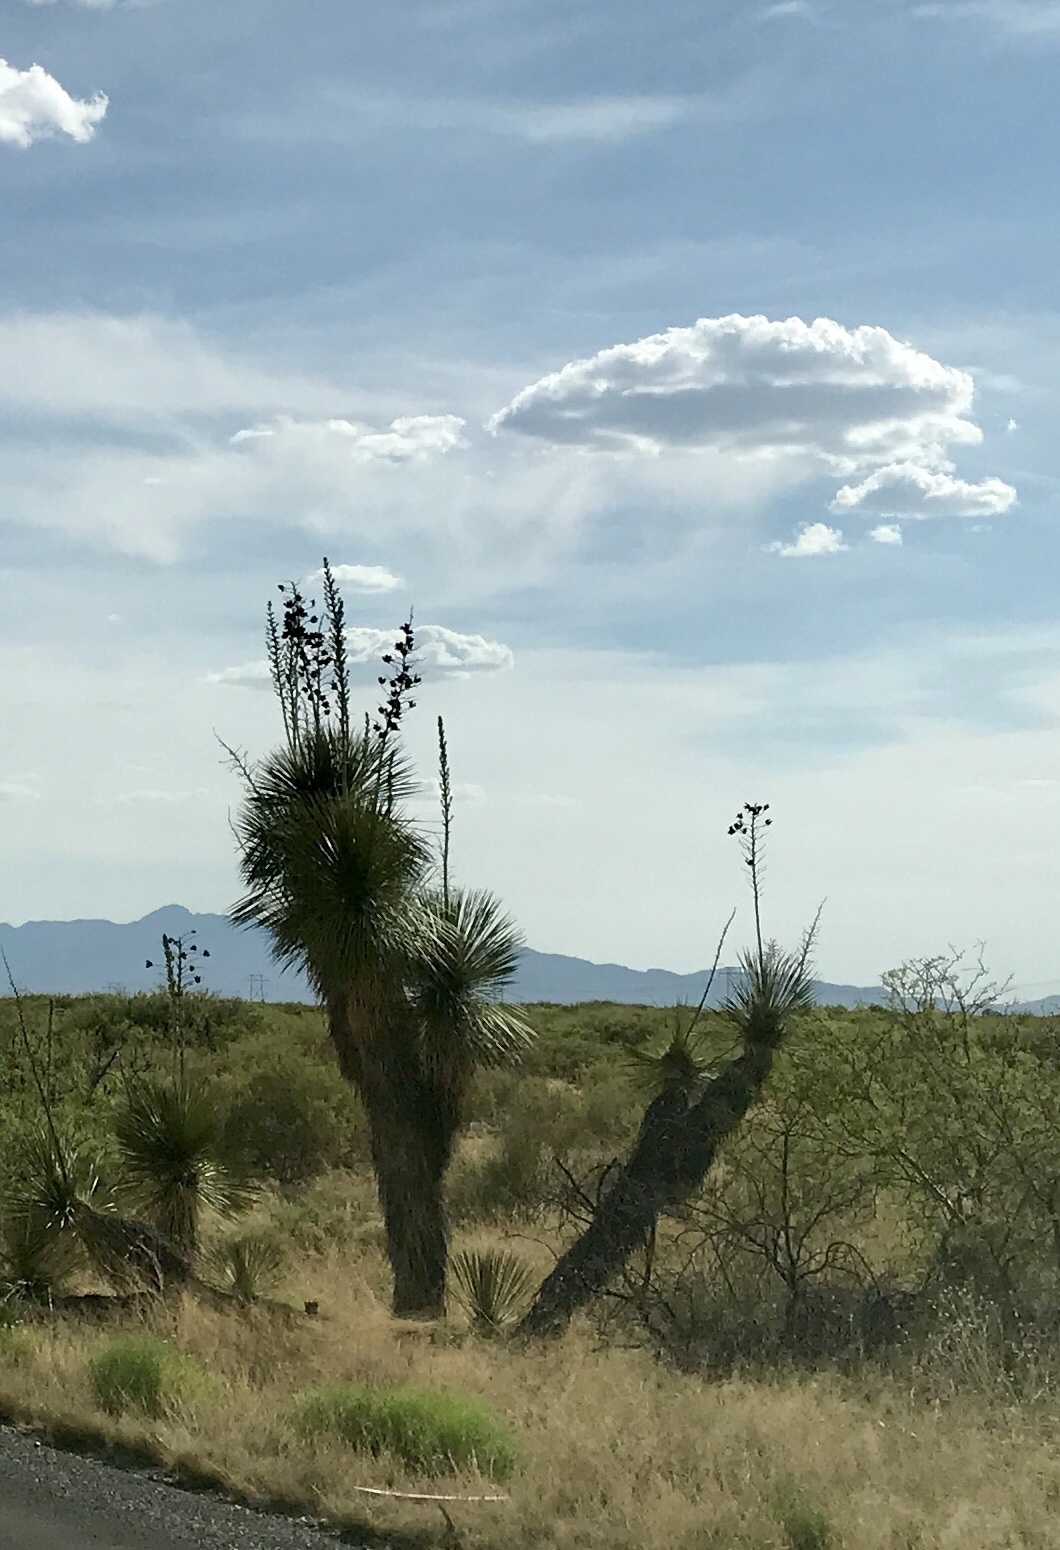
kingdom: Plantae
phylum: Tracheophyta
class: Liliopsida
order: Asparagales
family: Asparagaceae
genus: Yucca
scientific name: Yucca elata
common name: Palmella
